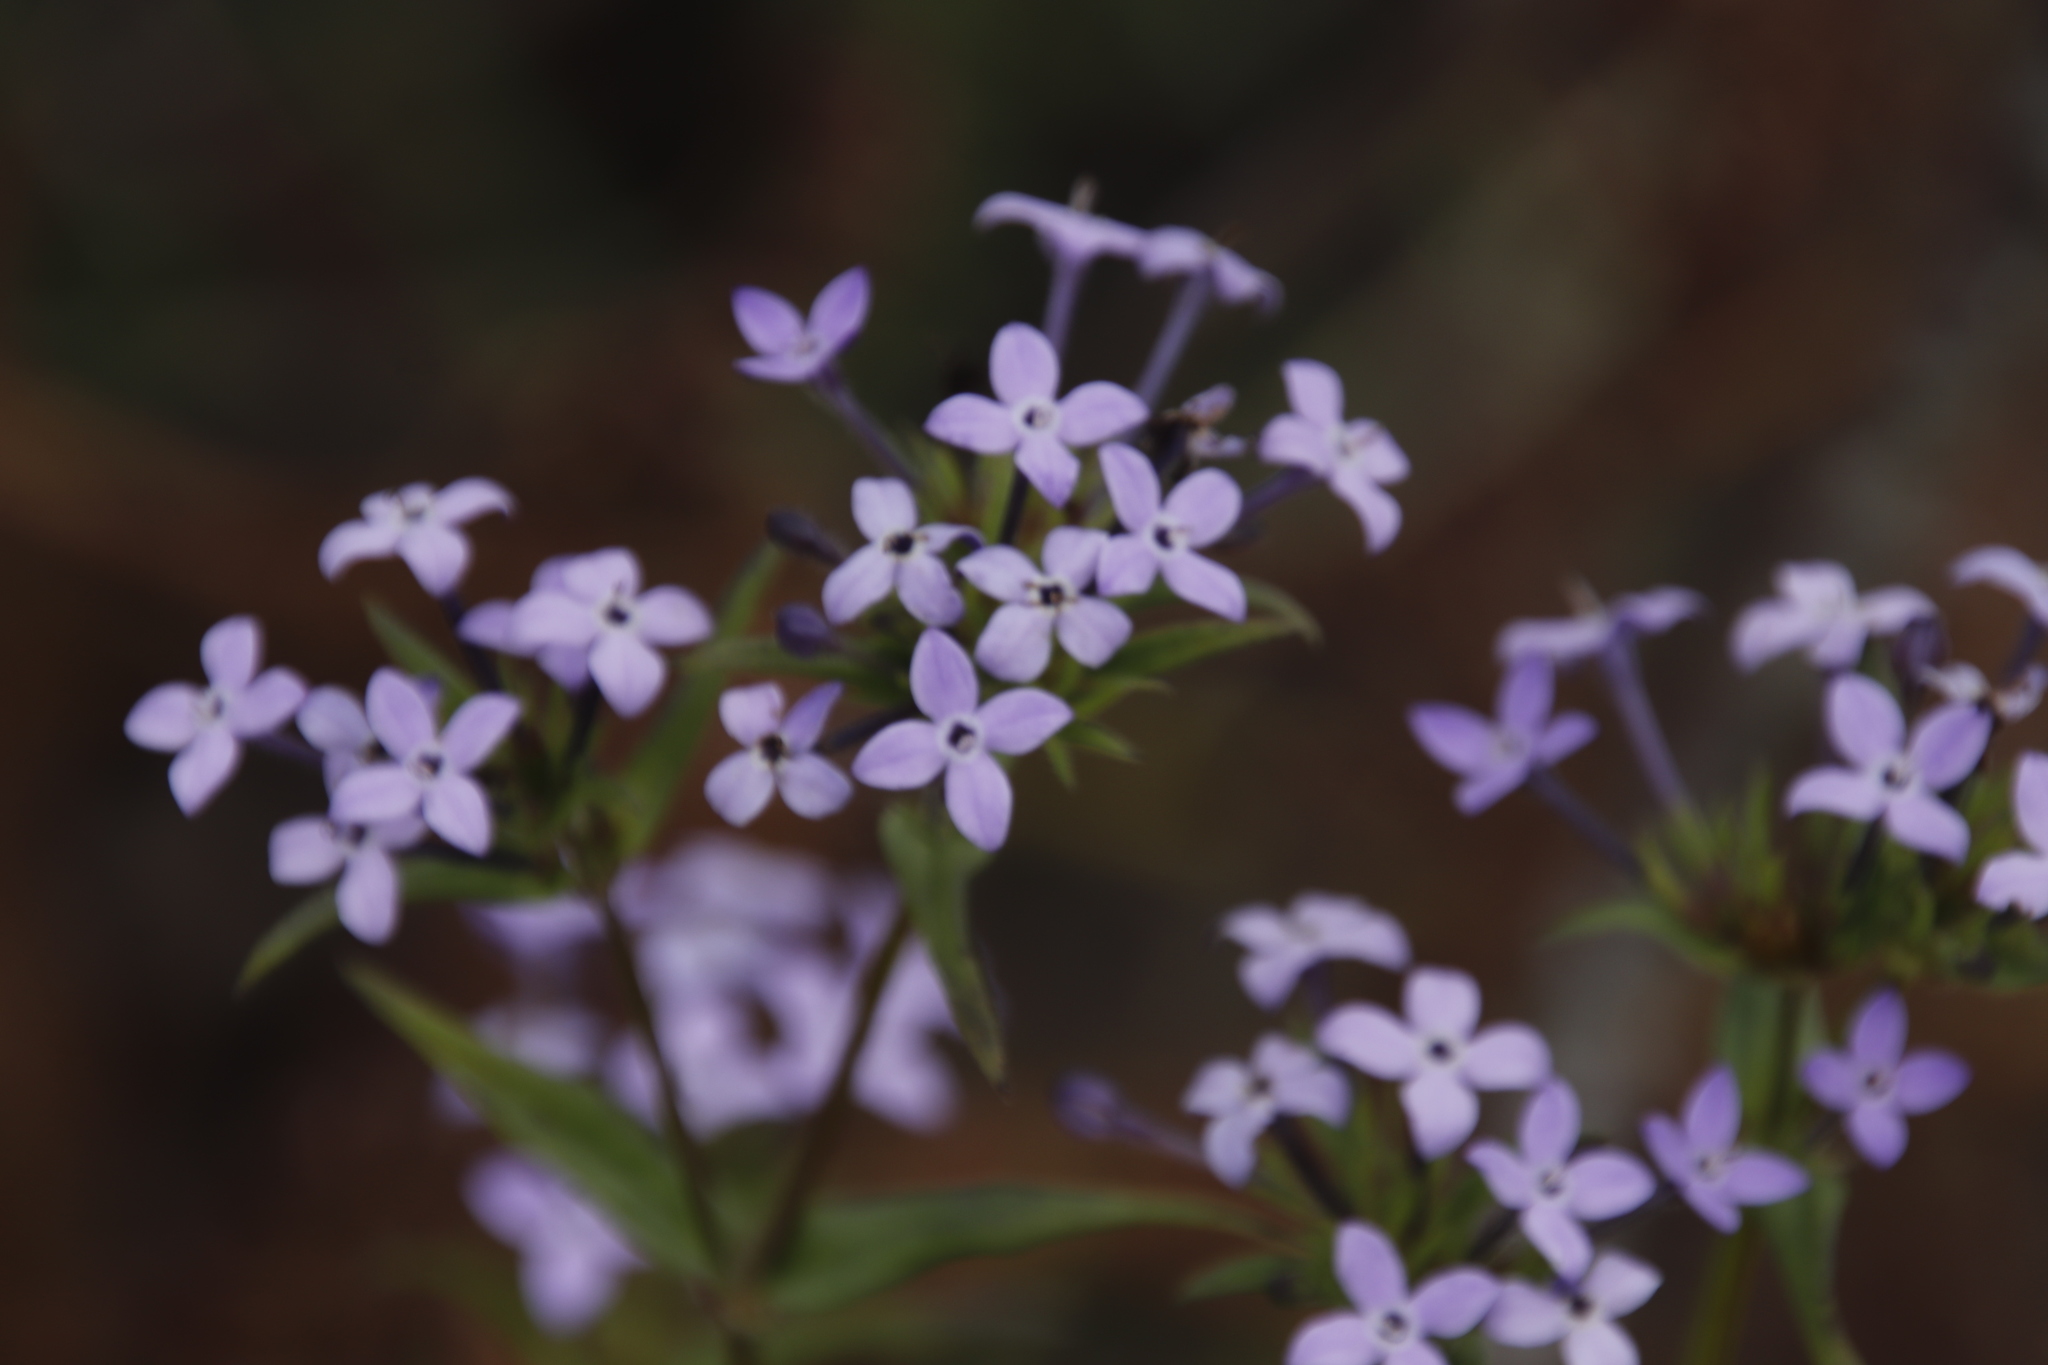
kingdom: Plantae
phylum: Tracheophyta
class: Magnoliopsida
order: Gentianales
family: Rubiaceae
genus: Conostomium
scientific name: Conostomium natalense
